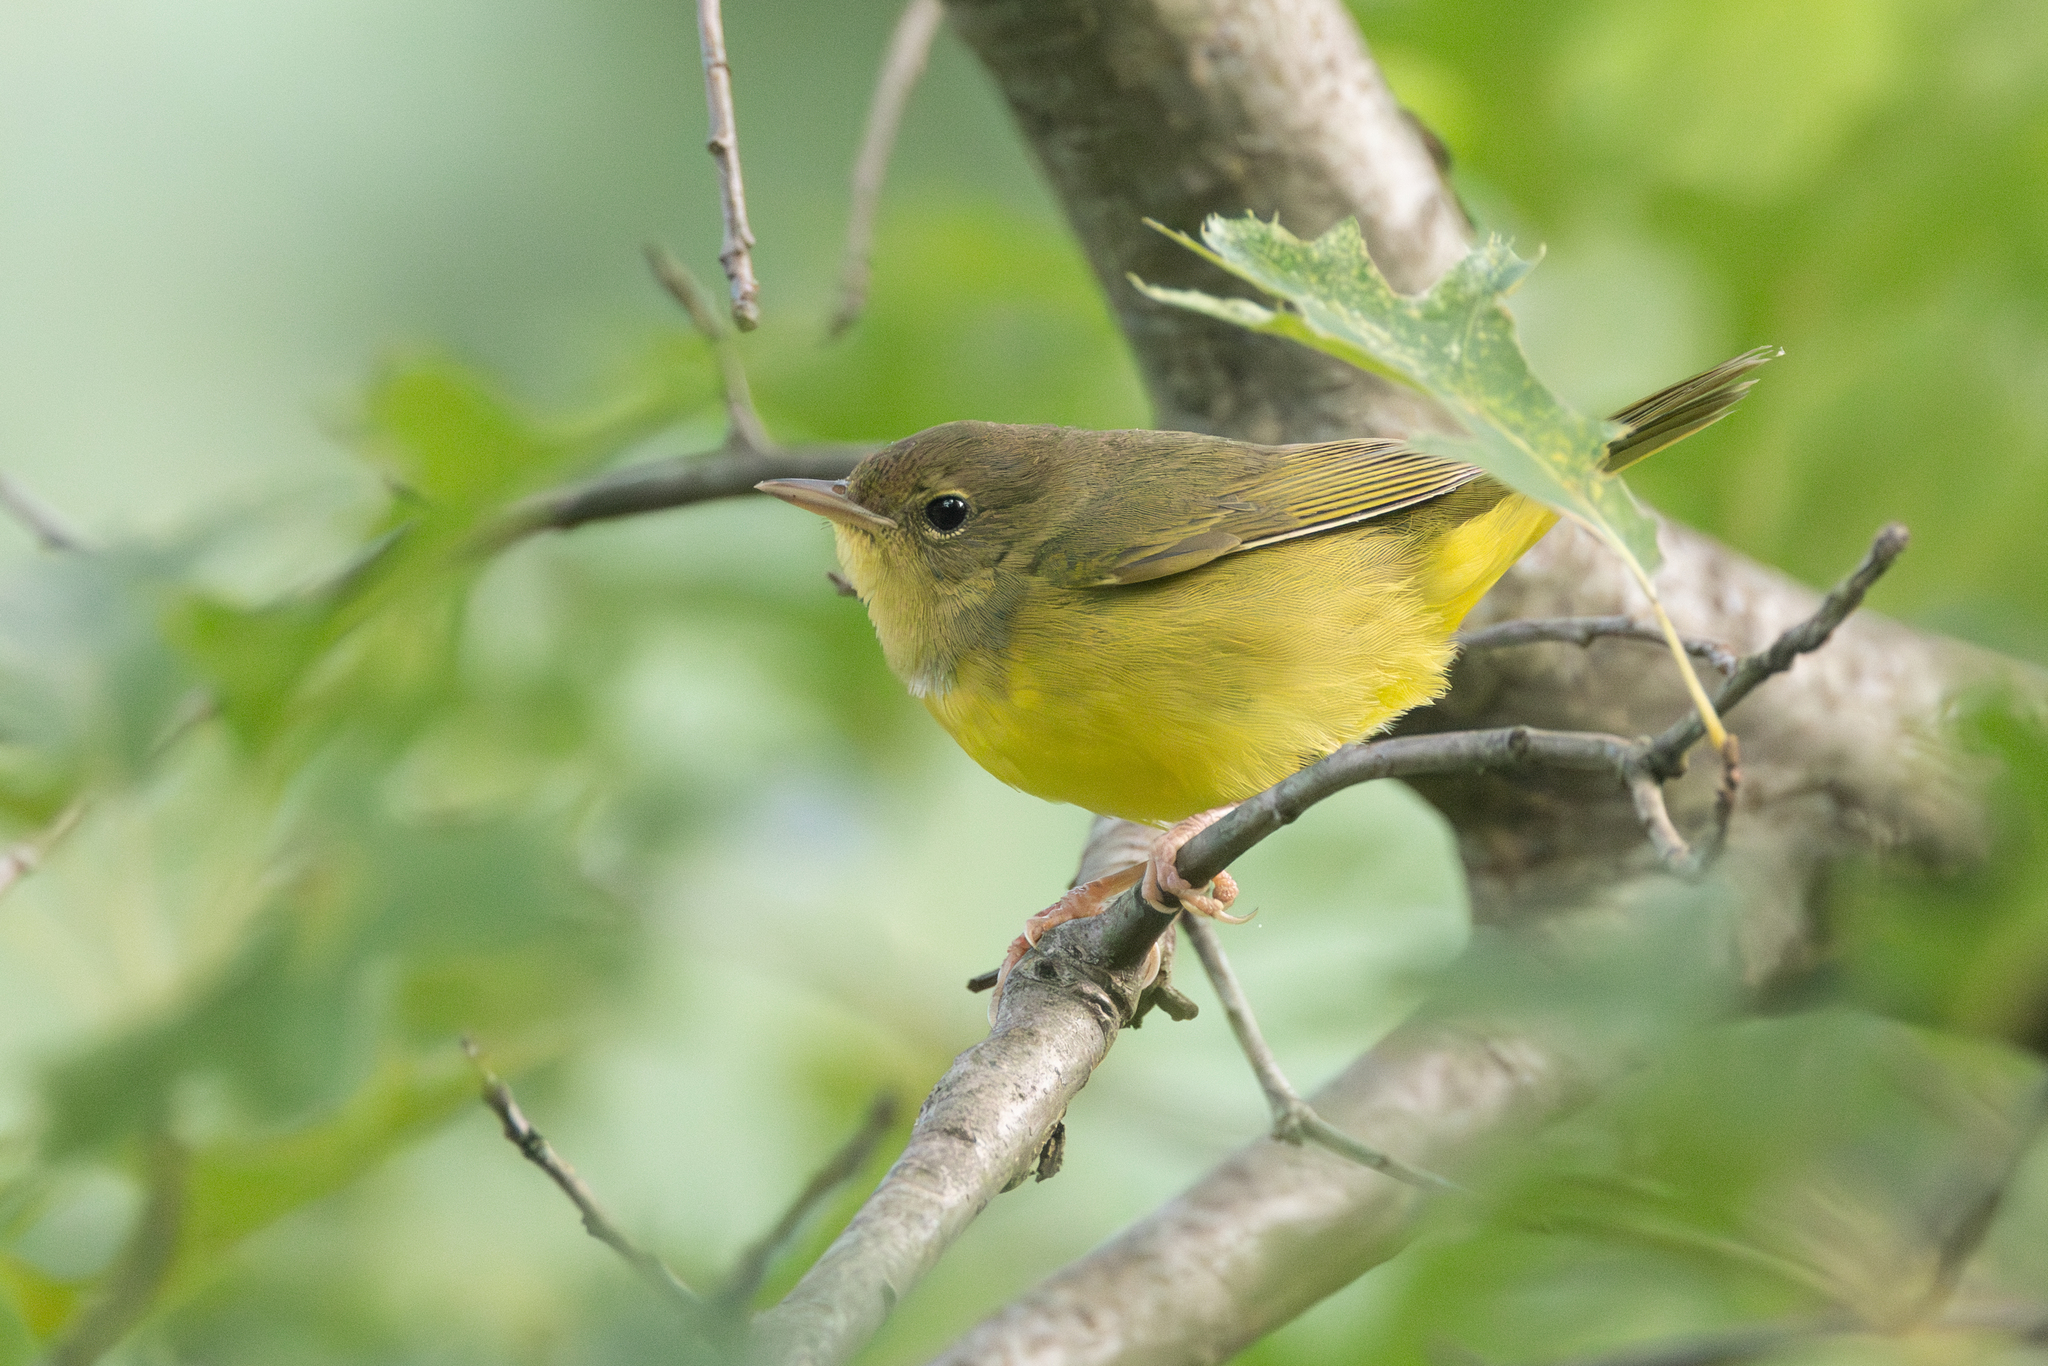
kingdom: Animalia
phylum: Chordata
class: Aves
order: Passeriformes
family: Parulidae
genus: Geothlypis
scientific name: Geothlypis philadelphia
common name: Mourning warbler
